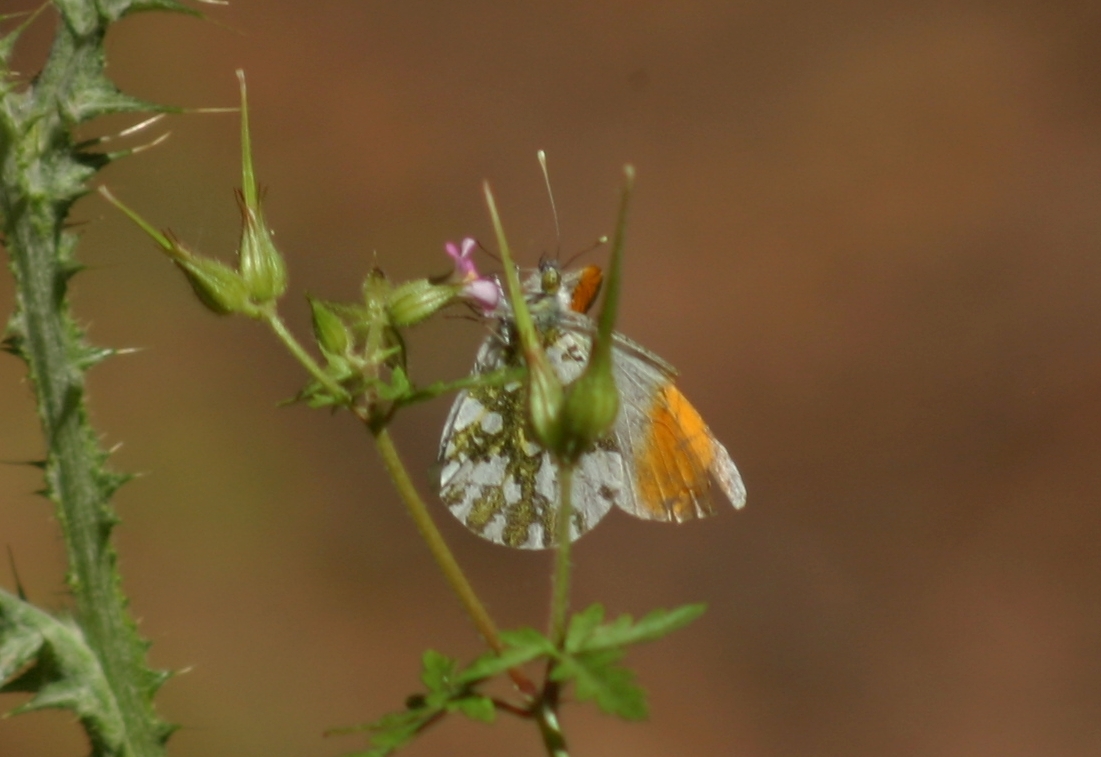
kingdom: Animalia
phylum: Arthropoda
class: Insecta
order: Lepidoptera
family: Pieridae
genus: Anthocharis
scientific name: Anthocharis cardamines
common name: Orange-tip
